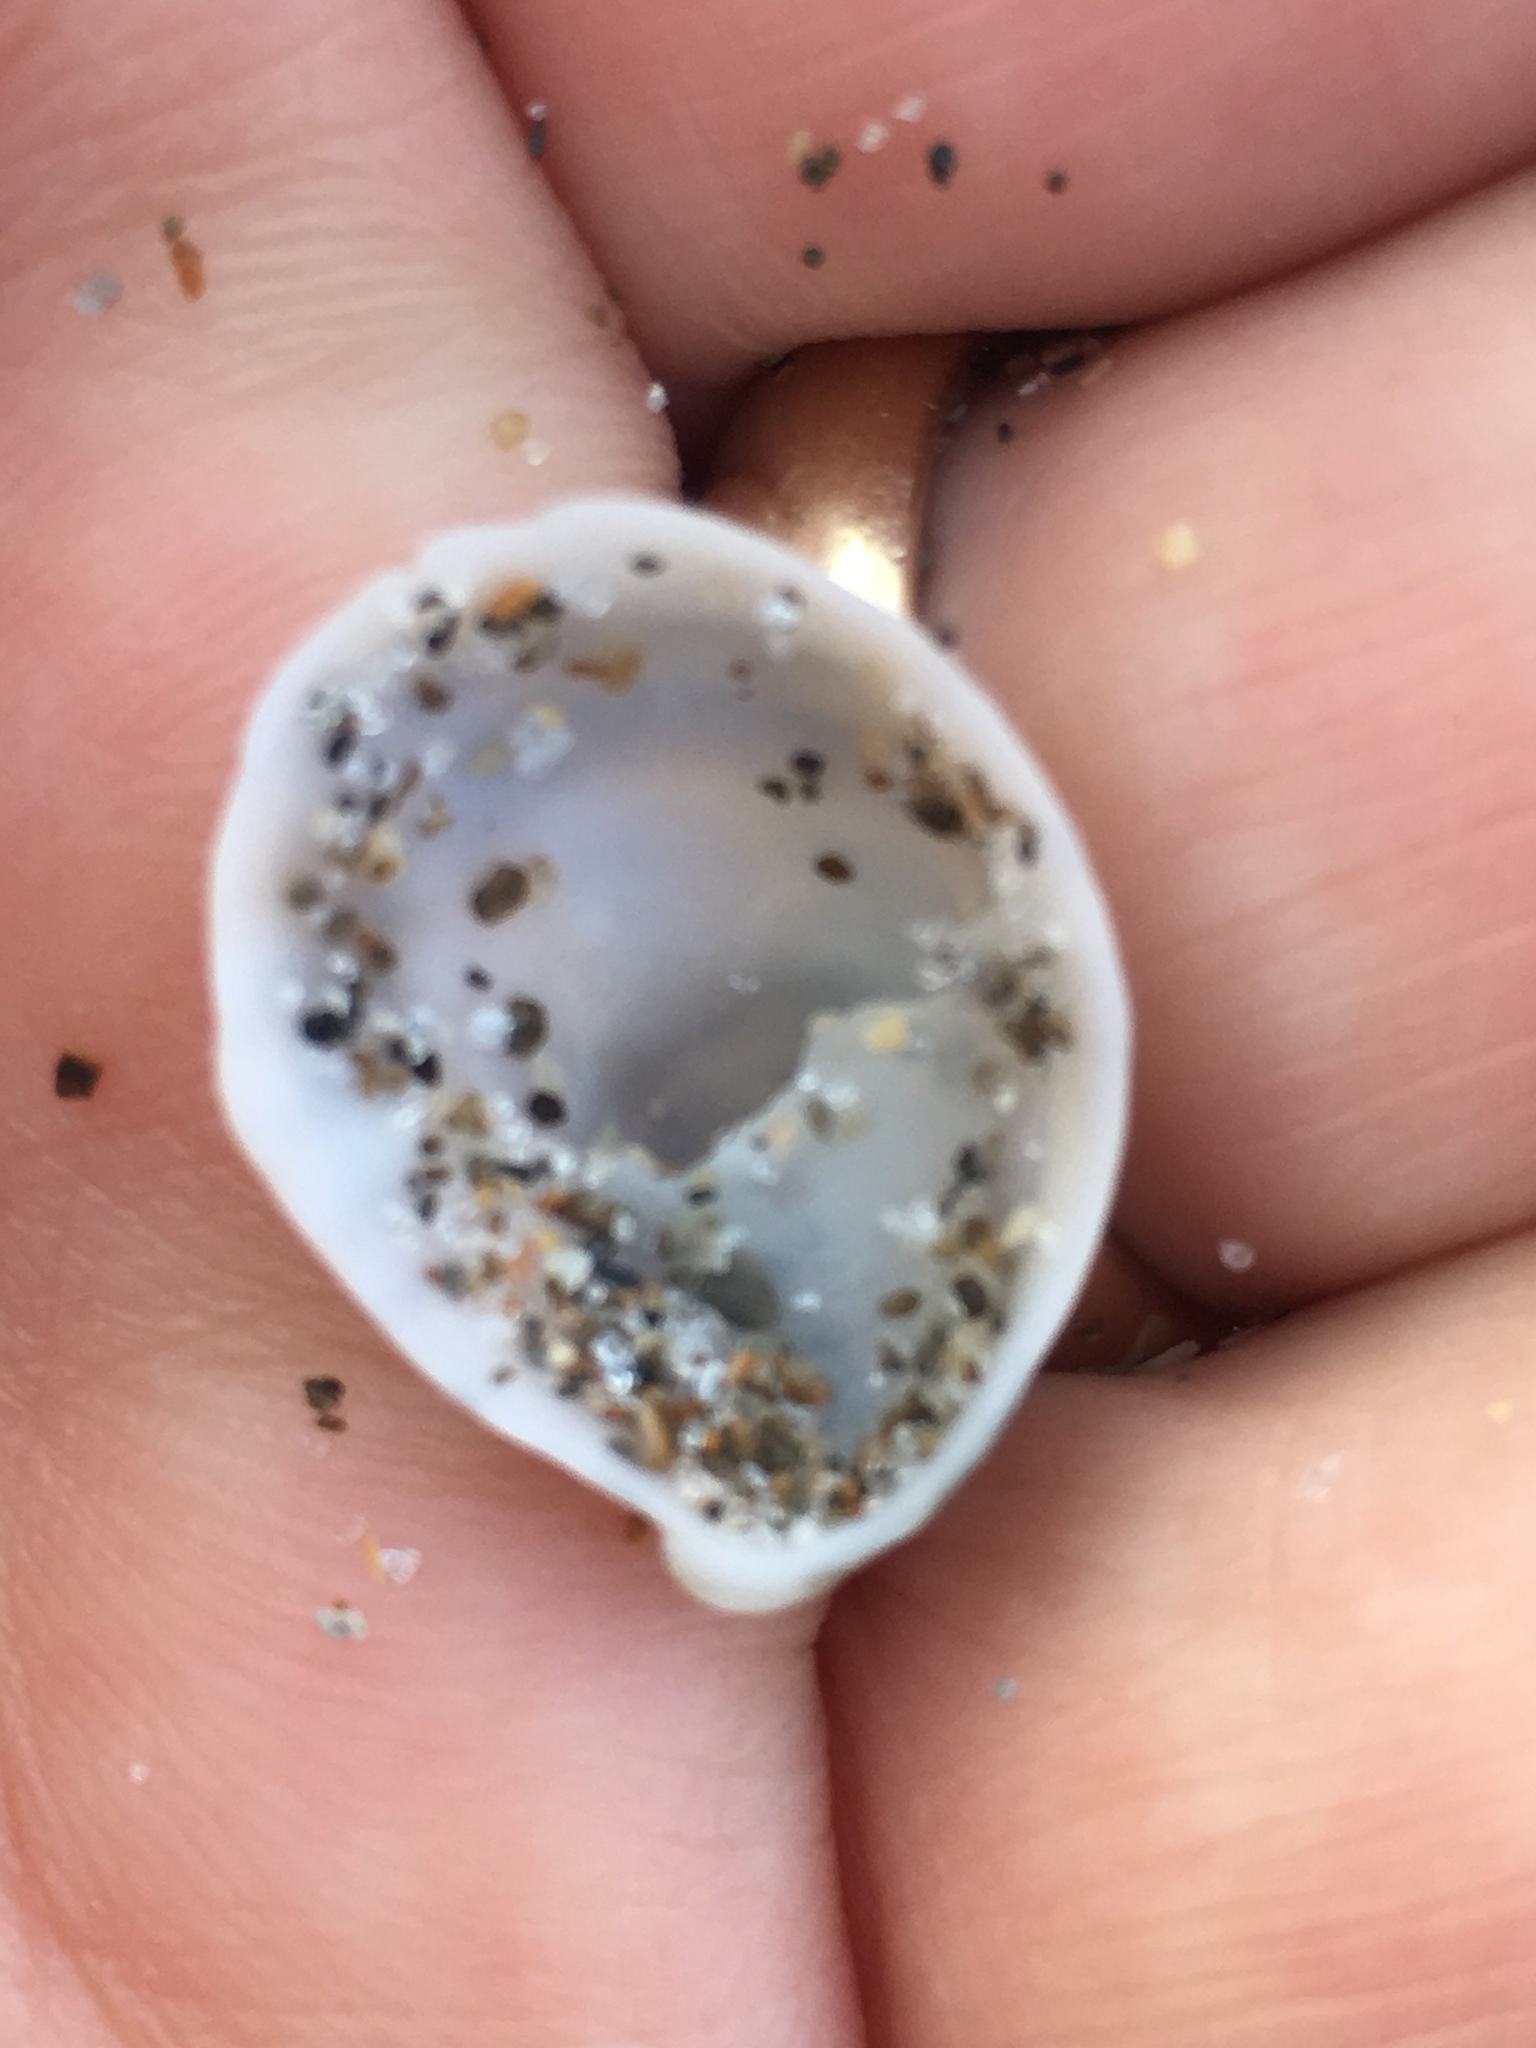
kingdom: Animalia
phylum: Mollusca
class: Gastropoda
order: Littorinimorpha
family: Calyptraeidae
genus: Crepidula
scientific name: Crepidula fornicata
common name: Slipper limpet
